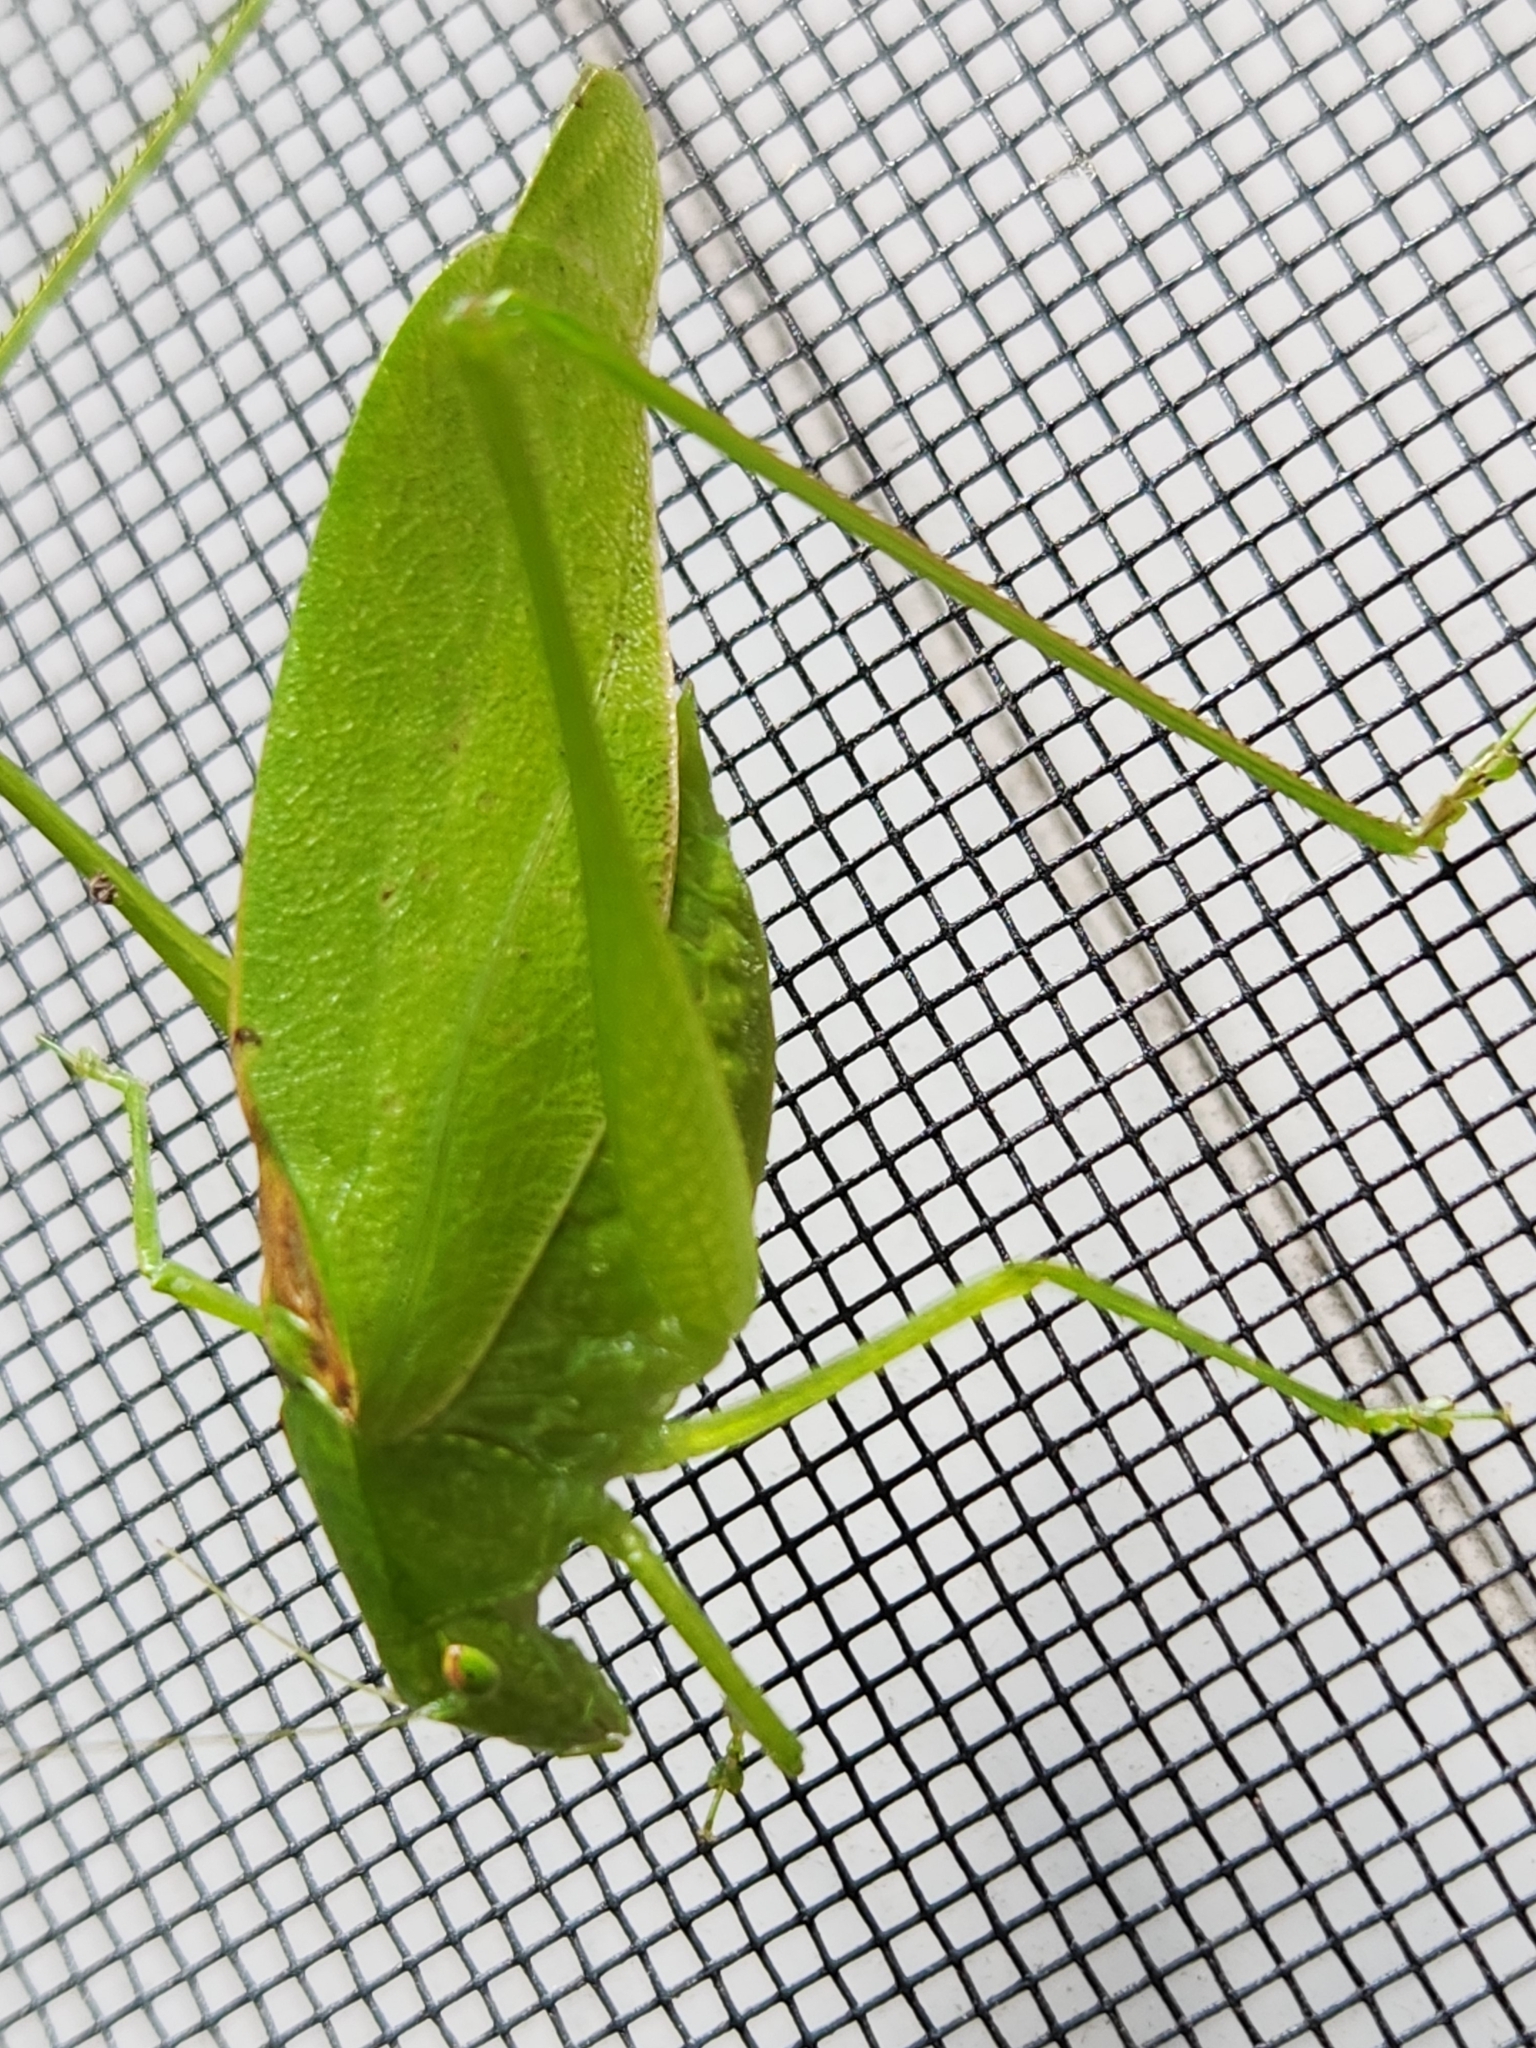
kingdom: Animalia
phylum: Arthropoda
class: Insecta
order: Orthoptera
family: Tettigoniidae
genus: Amblycorypha
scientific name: Amblycorypha oblongifolia
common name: Oblong-winged katydid
